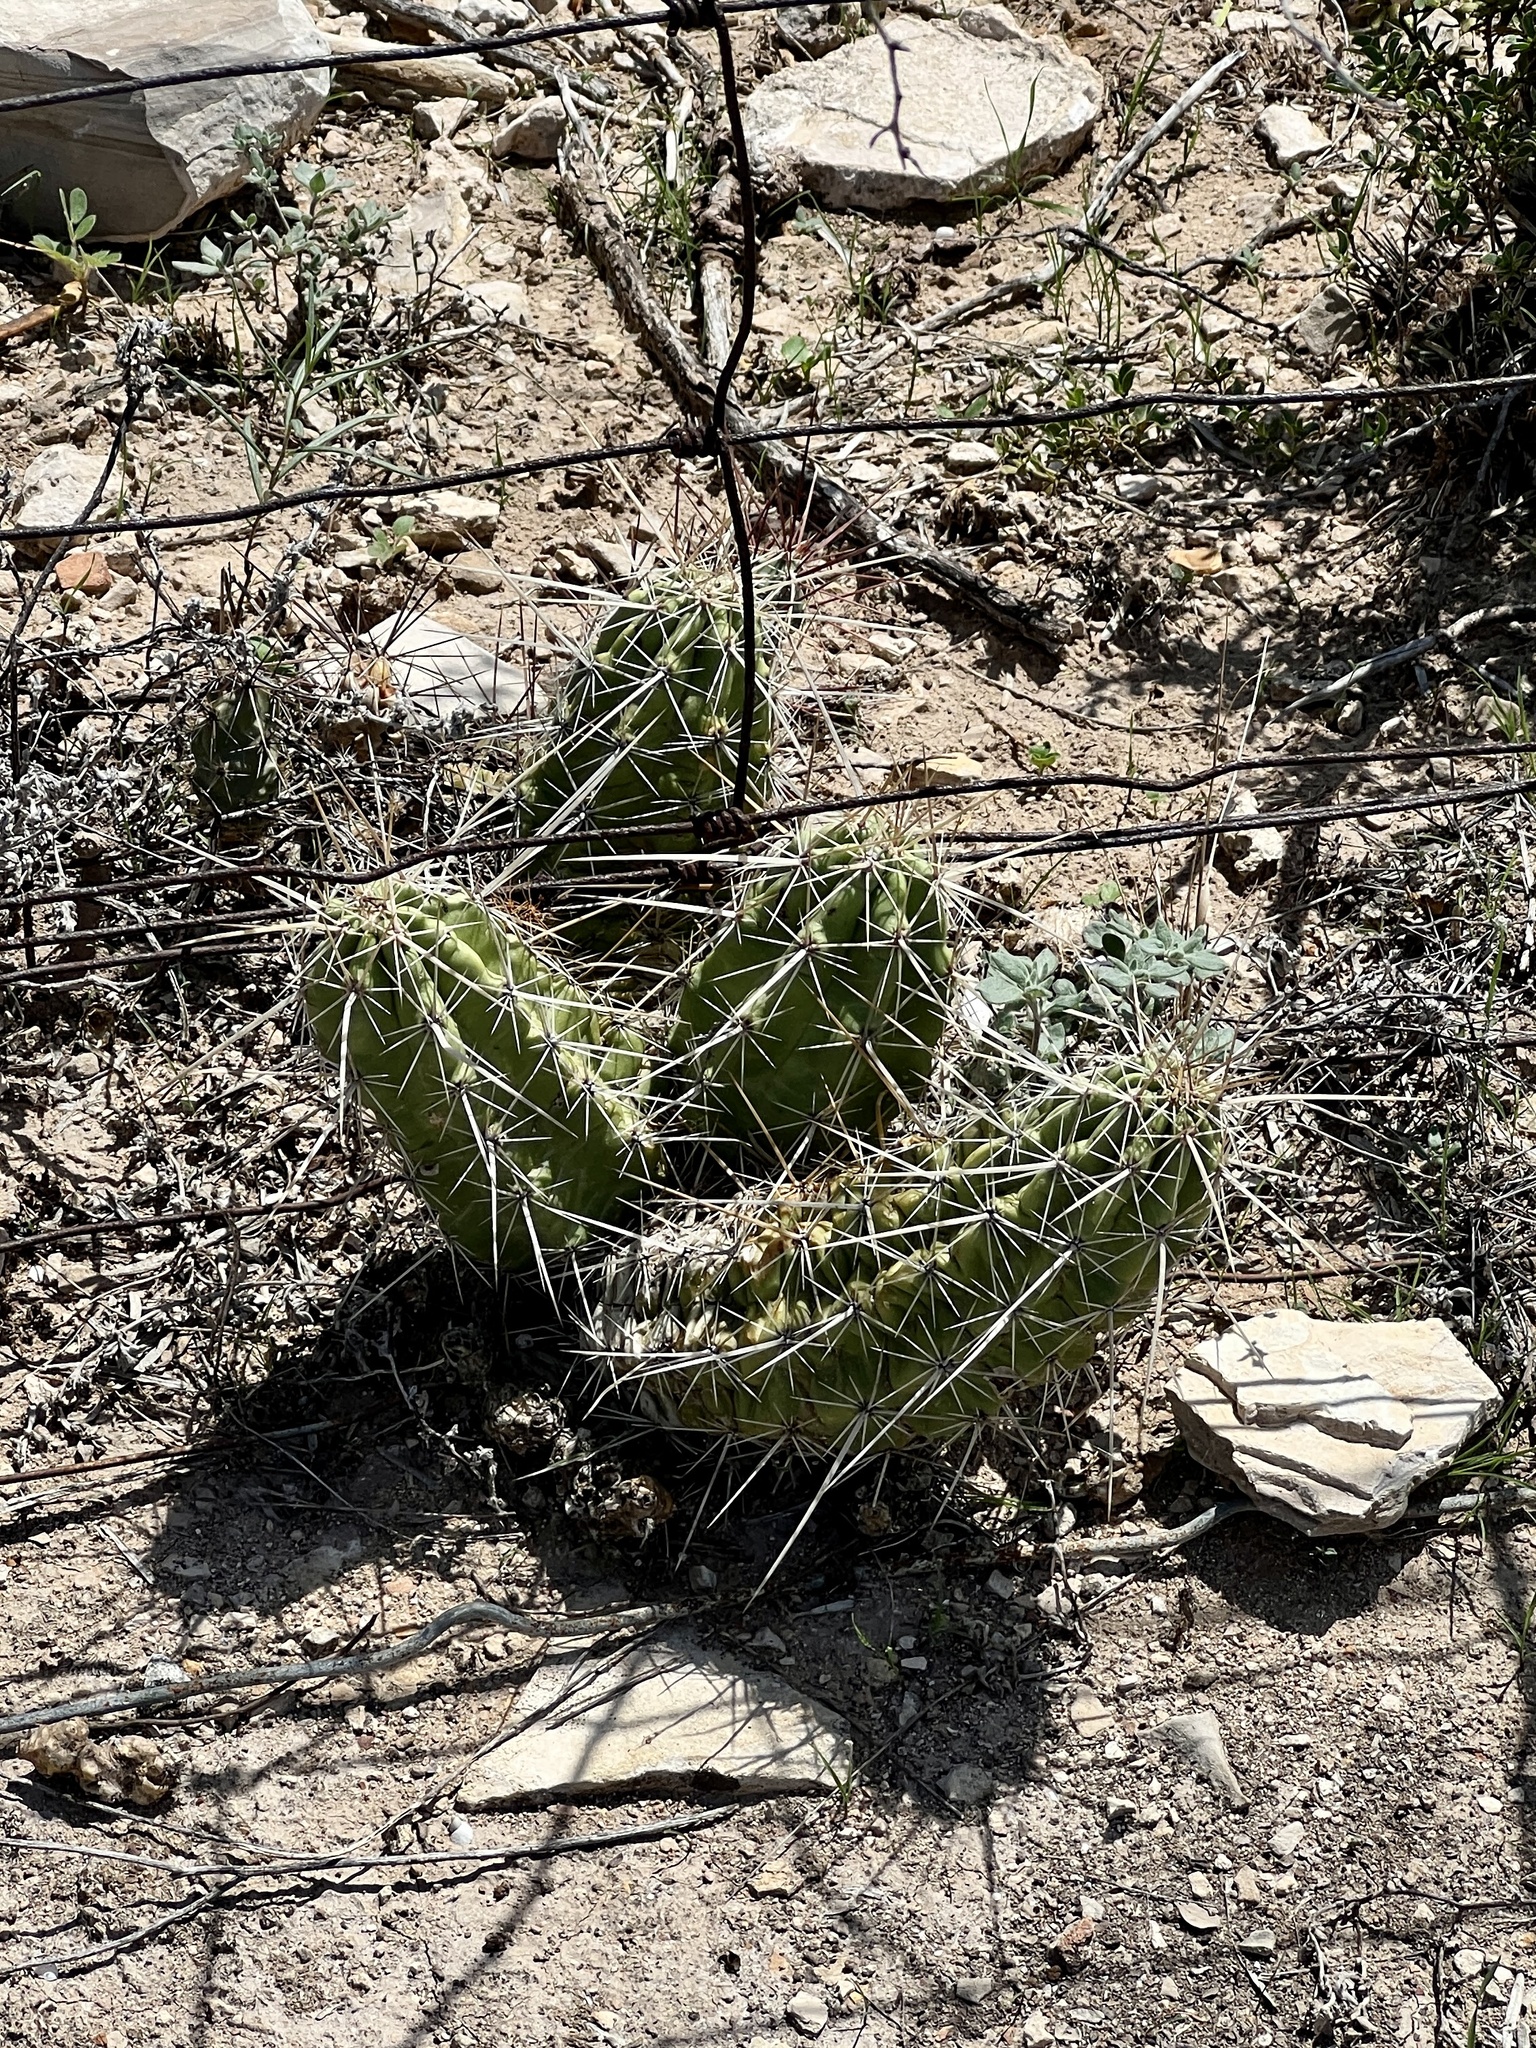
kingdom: Plantae
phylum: Tracheophyta
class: Magnoliopsida
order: Caryophyllales
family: Cactaceae
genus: Echinocereus
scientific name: Echinocereus enneacanthus
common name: Pitaya
